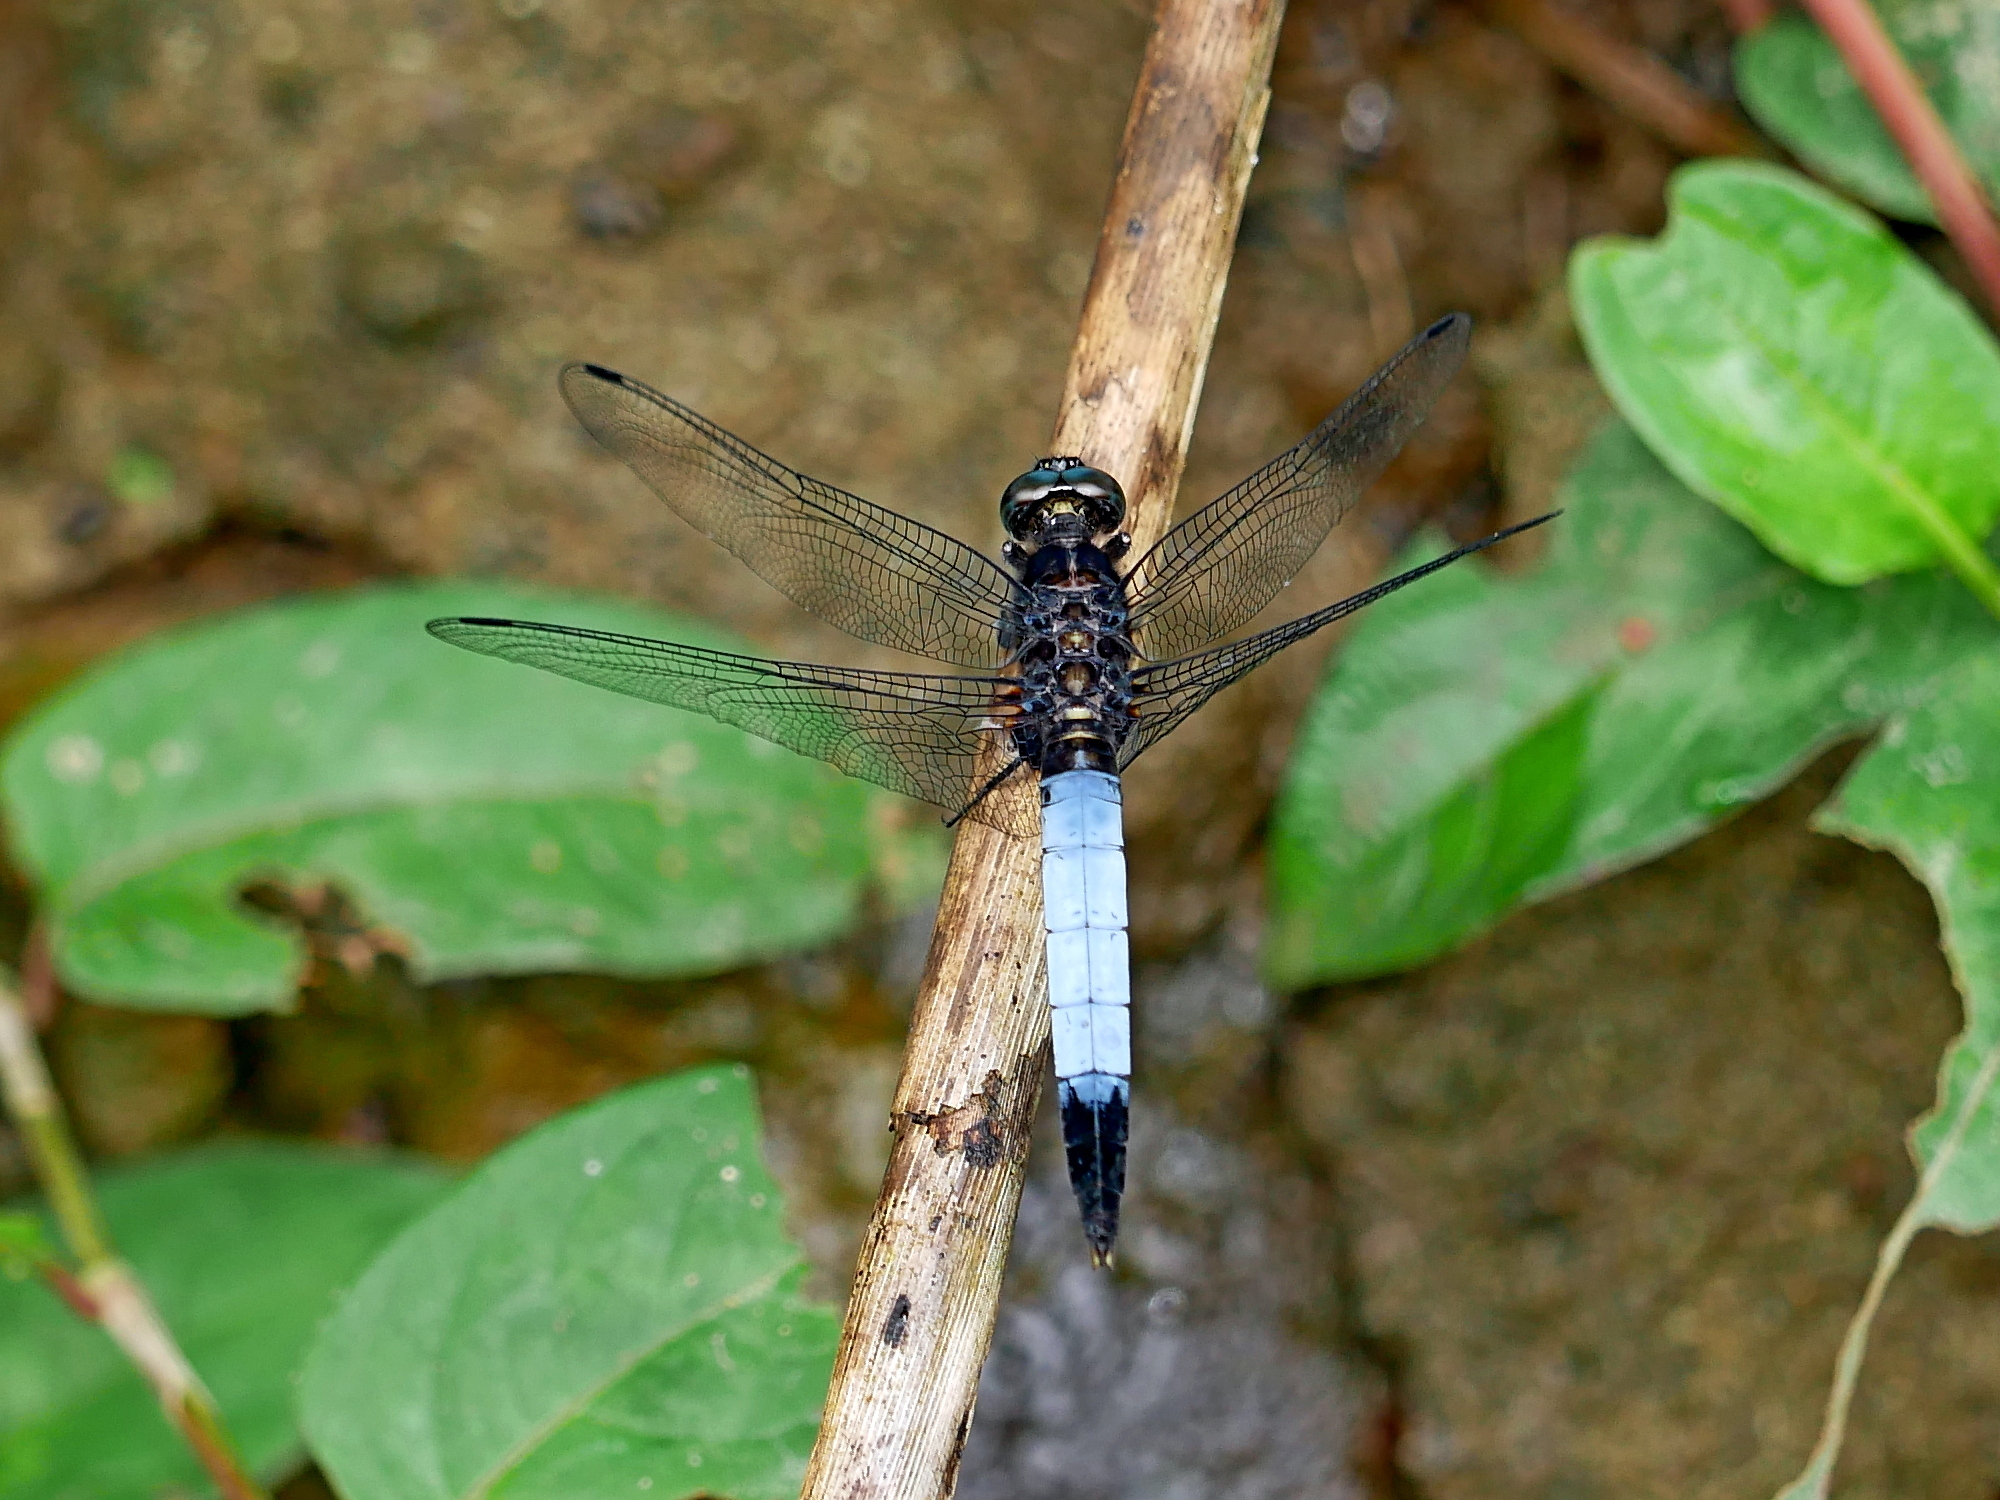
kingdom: Animalia
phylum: Arthropoda
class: Insecta
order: Odonata
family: Libellulidae
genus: Orthetrum
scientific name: Orthetrum triangulare
